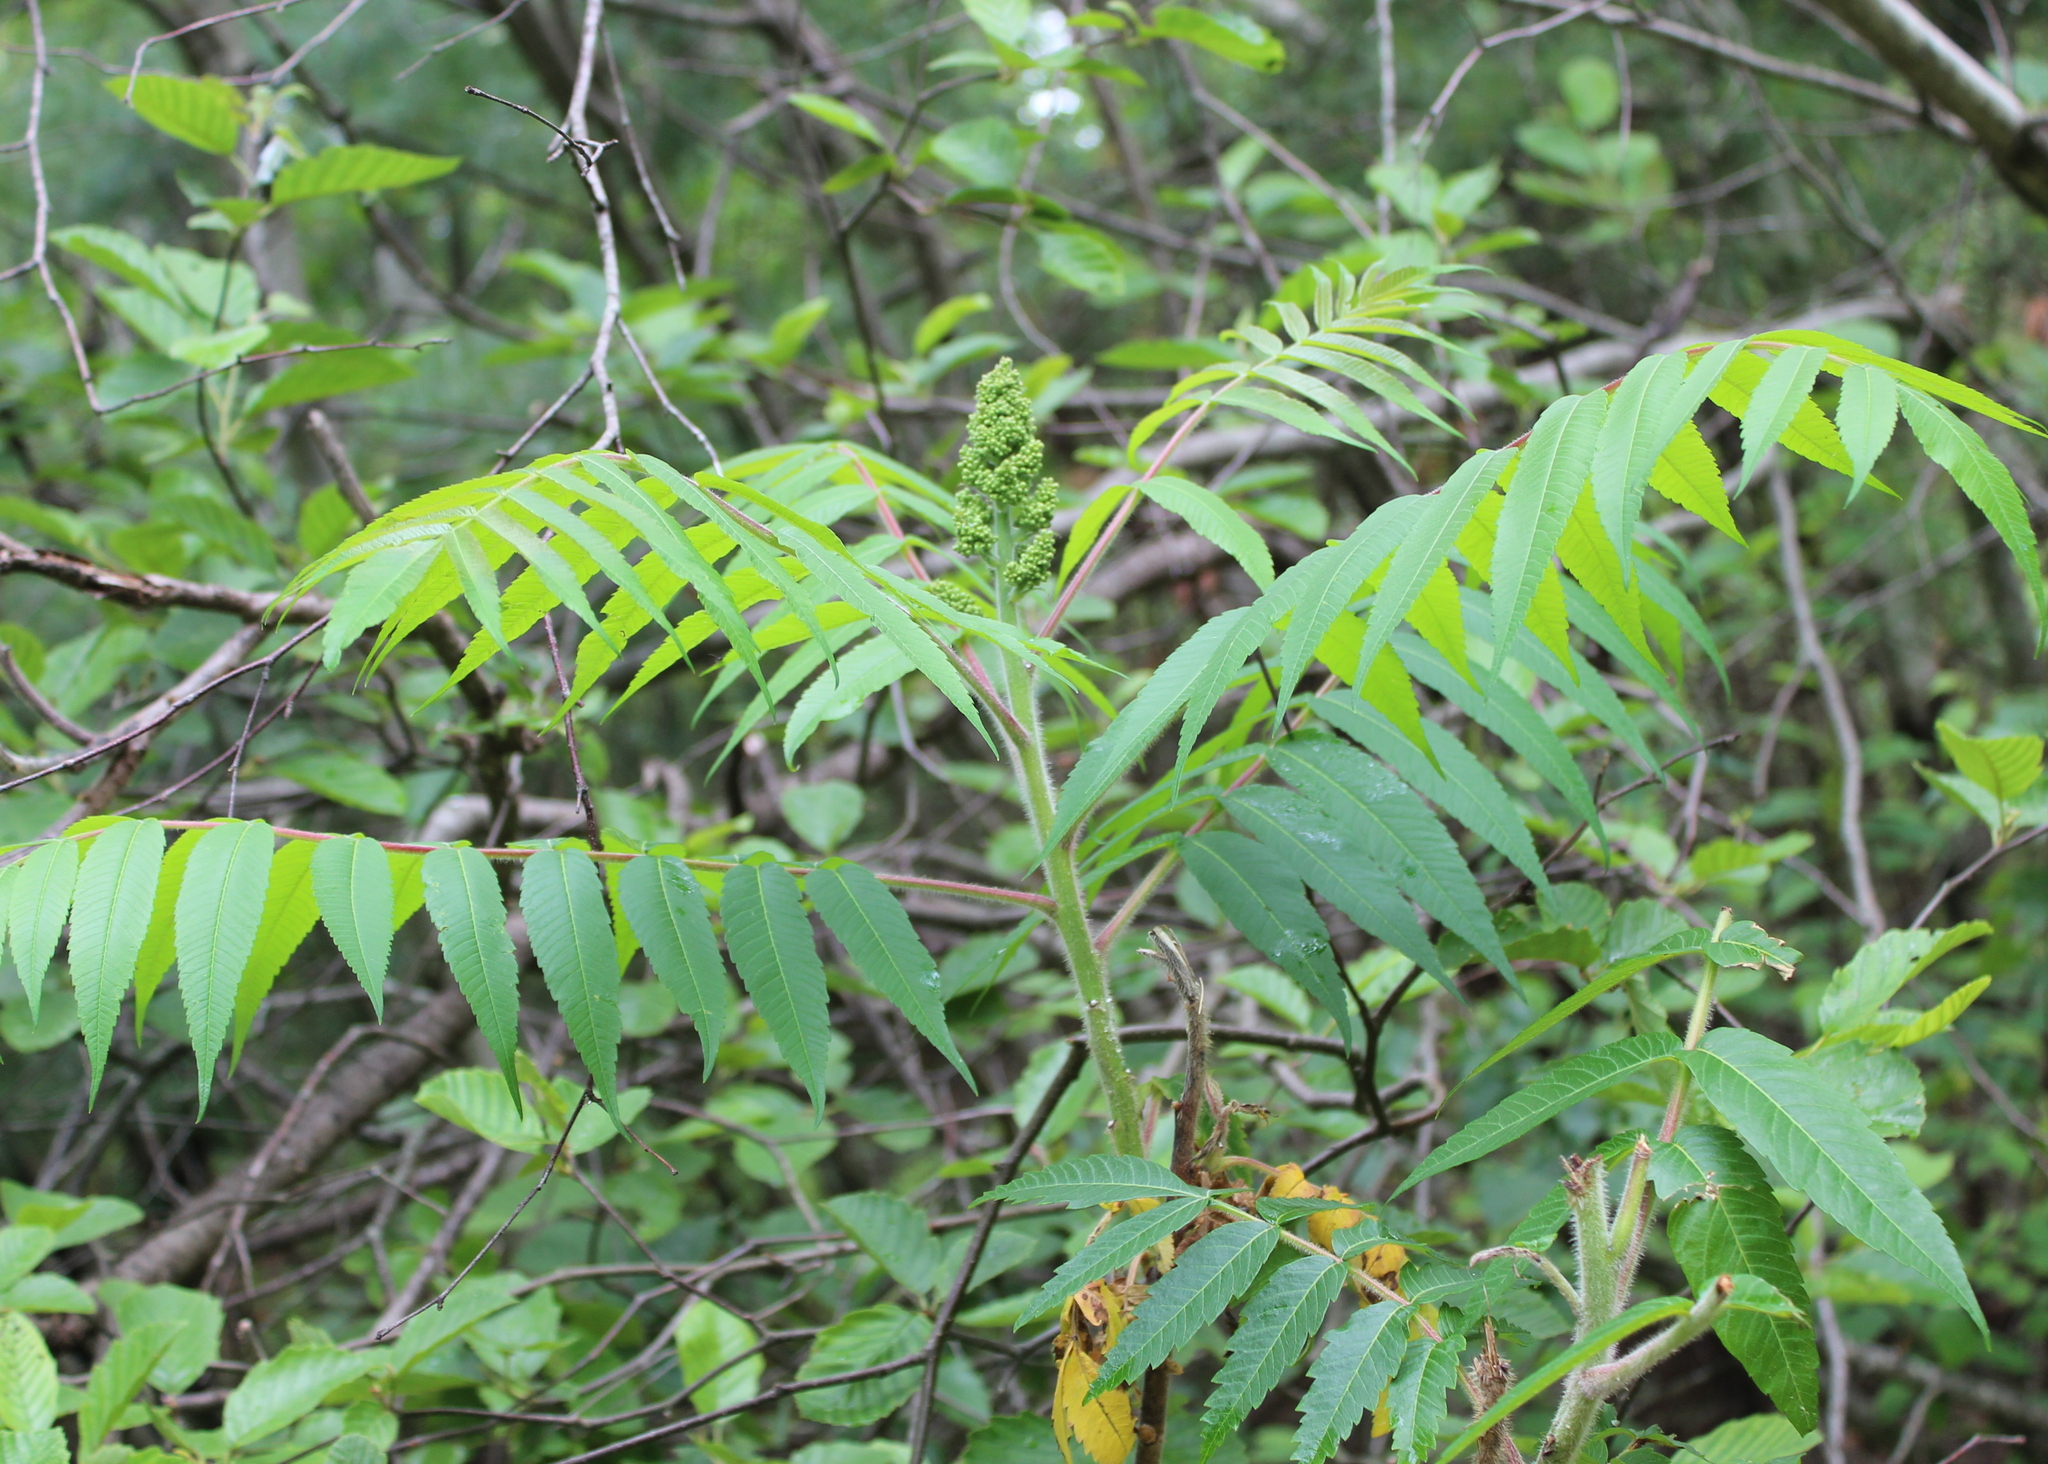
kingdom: Plantae
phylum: Tracheophyta
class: Magnoliopsida
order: Sapindales
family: Anacardiaceae
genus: Rhus
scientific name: Rhus typhina
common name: Staghorn sumac
